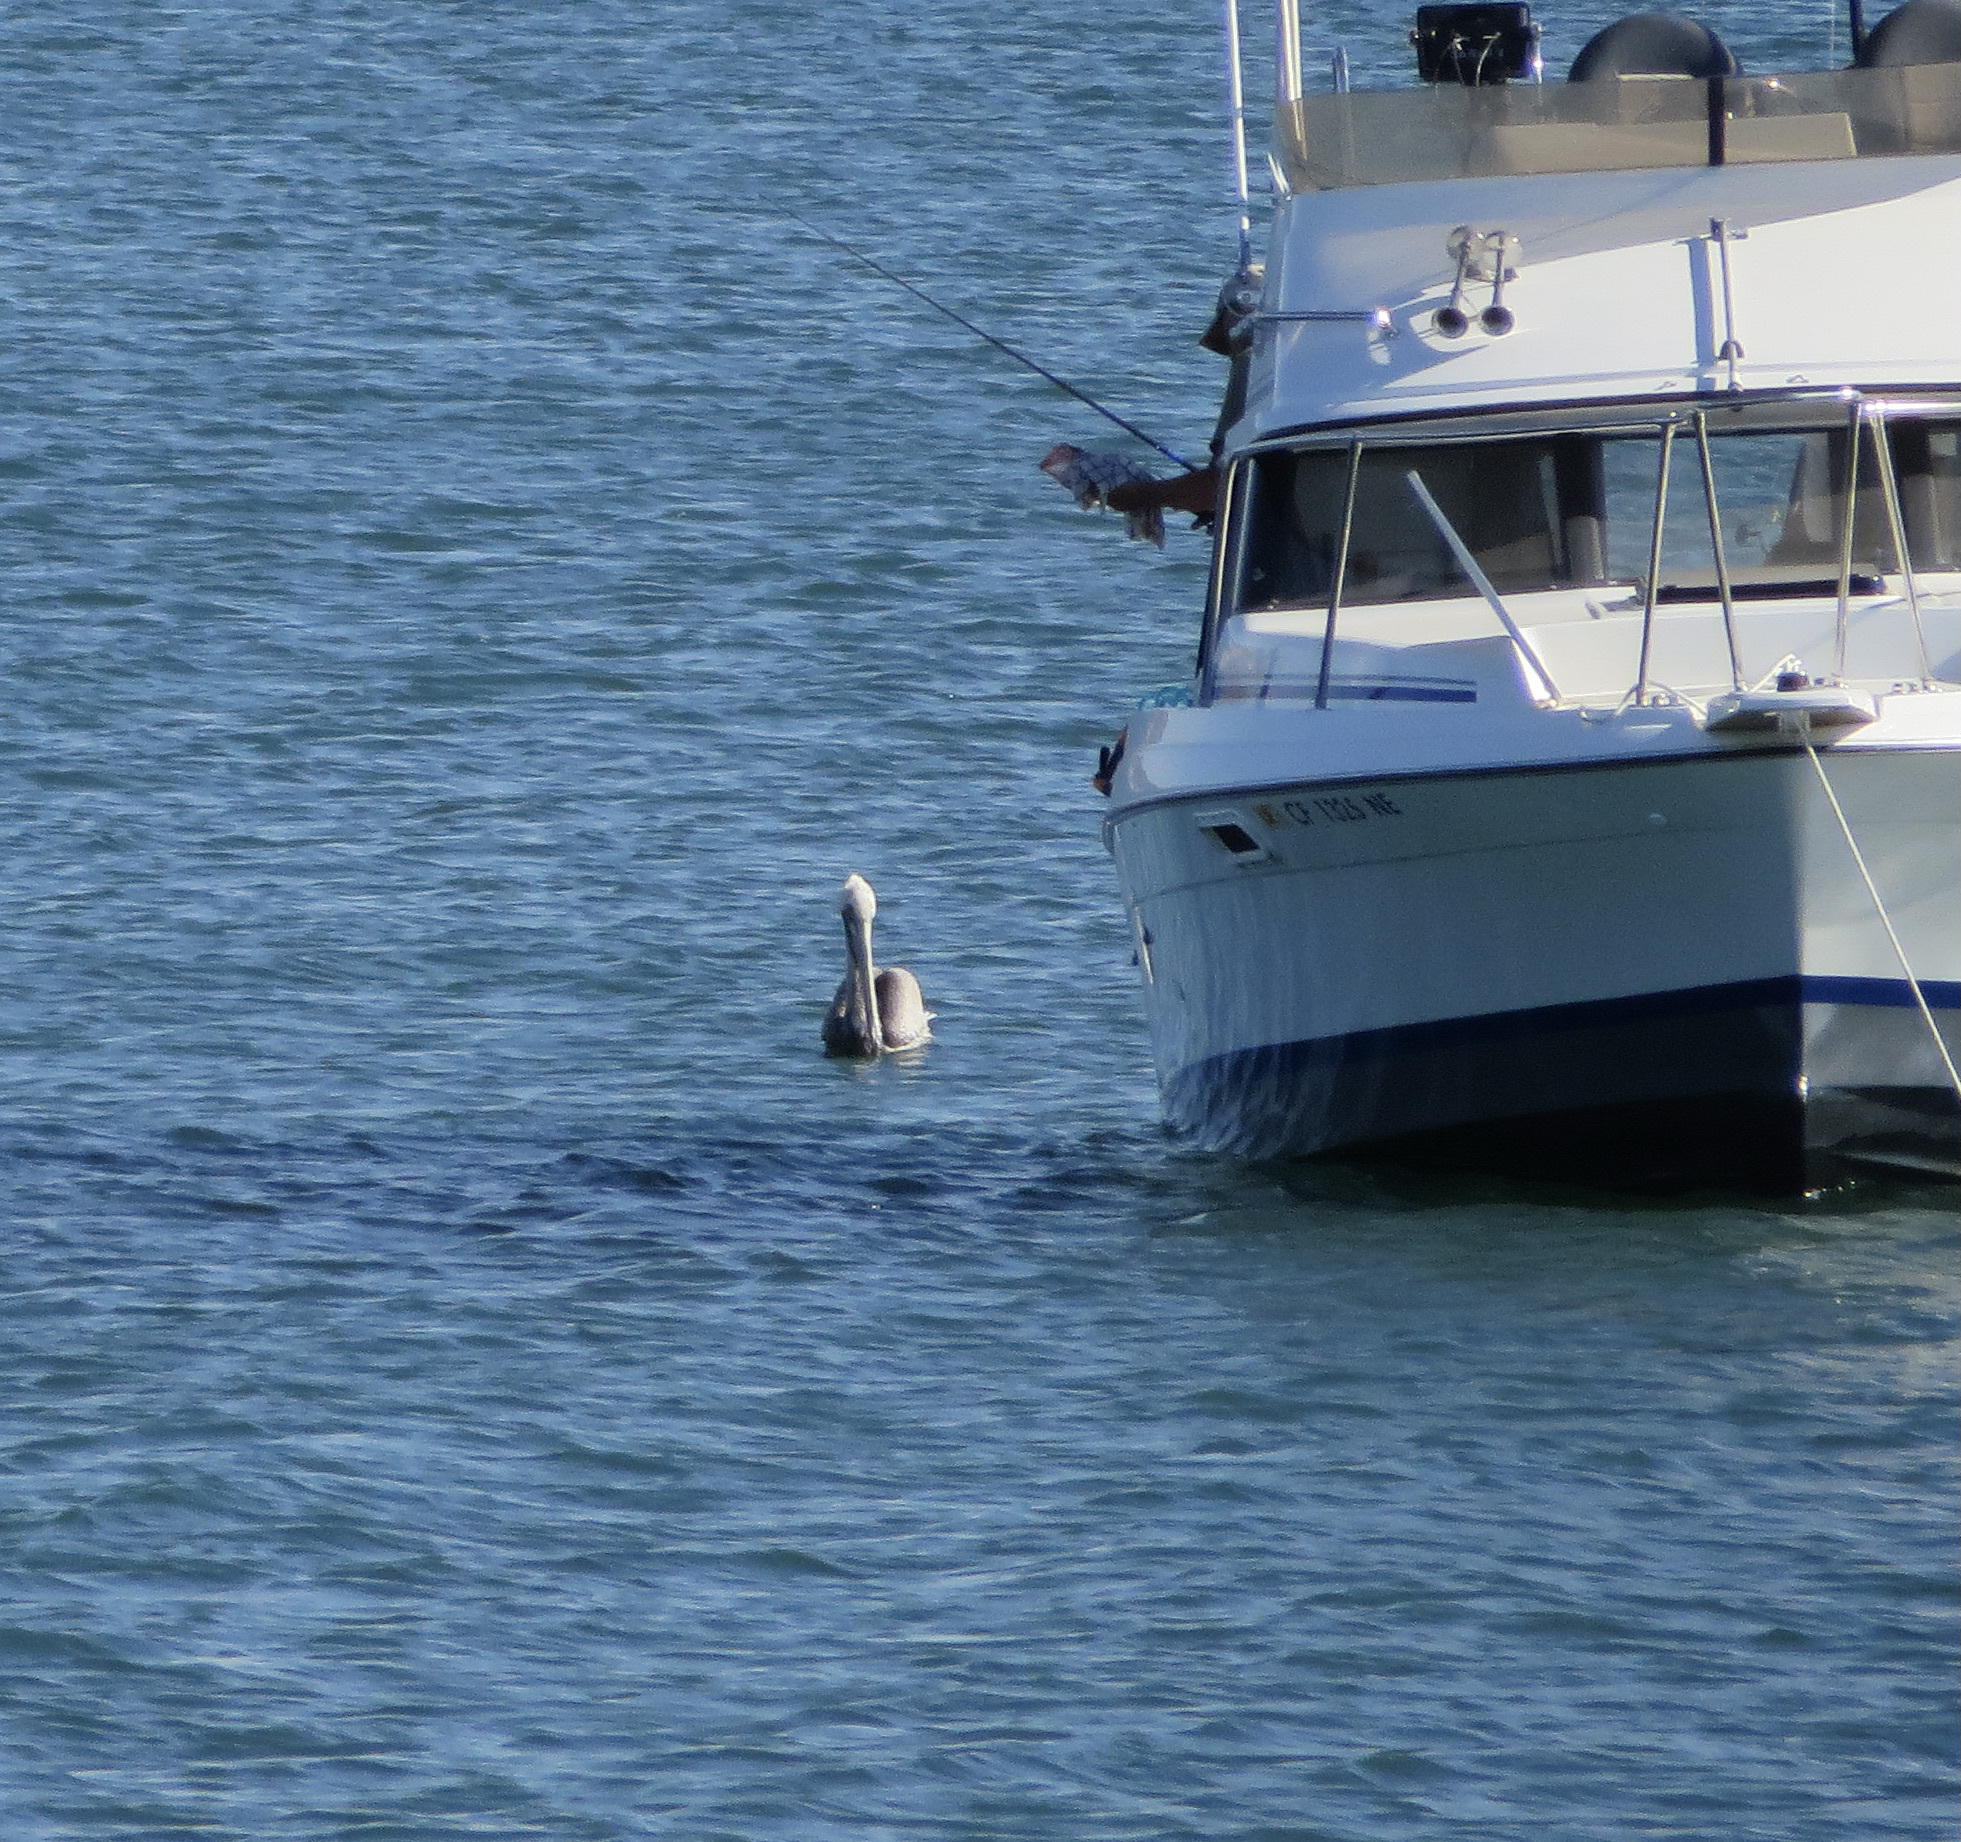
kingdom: Animalia
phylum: Chordata
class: Aves
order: Pelecaniformes
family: Pelecanidae
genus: Pelecanus
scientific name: Pelecanus occidentalis
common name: Brown pelican
